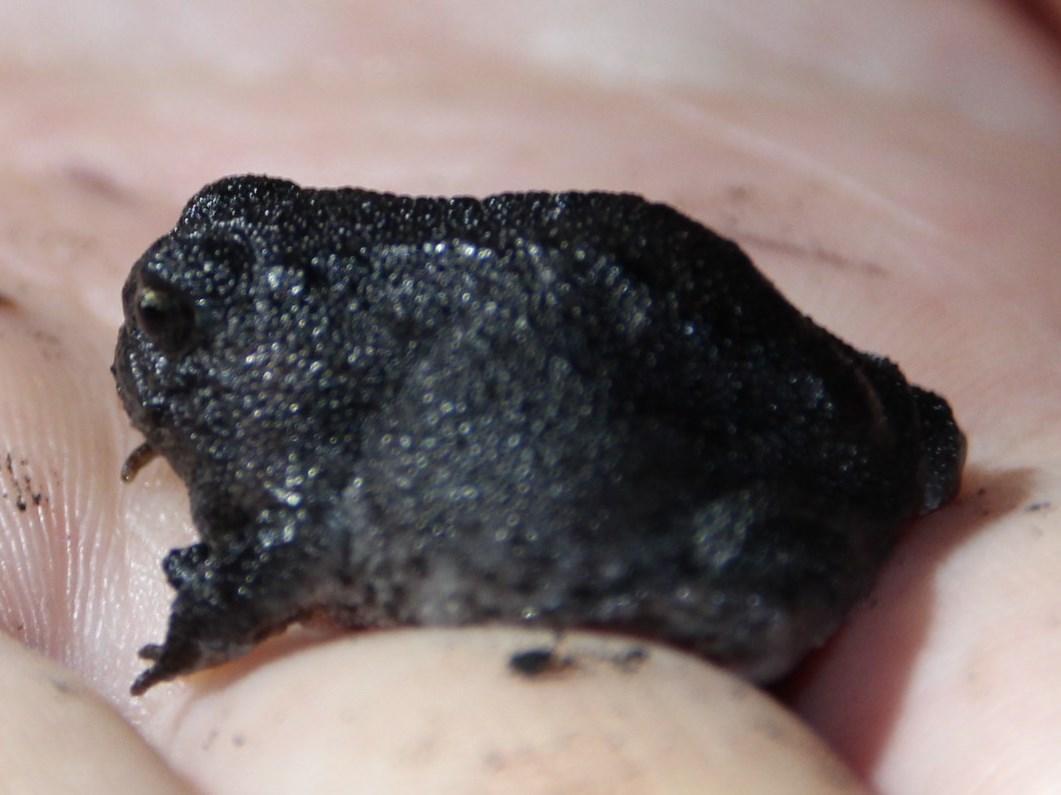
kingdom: Animalia
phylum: Chordata
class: Amphibia
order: Anura
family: Brevicipitidae
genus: Breviceps
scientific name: Breviceps montanus
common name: Mountain rain frog
